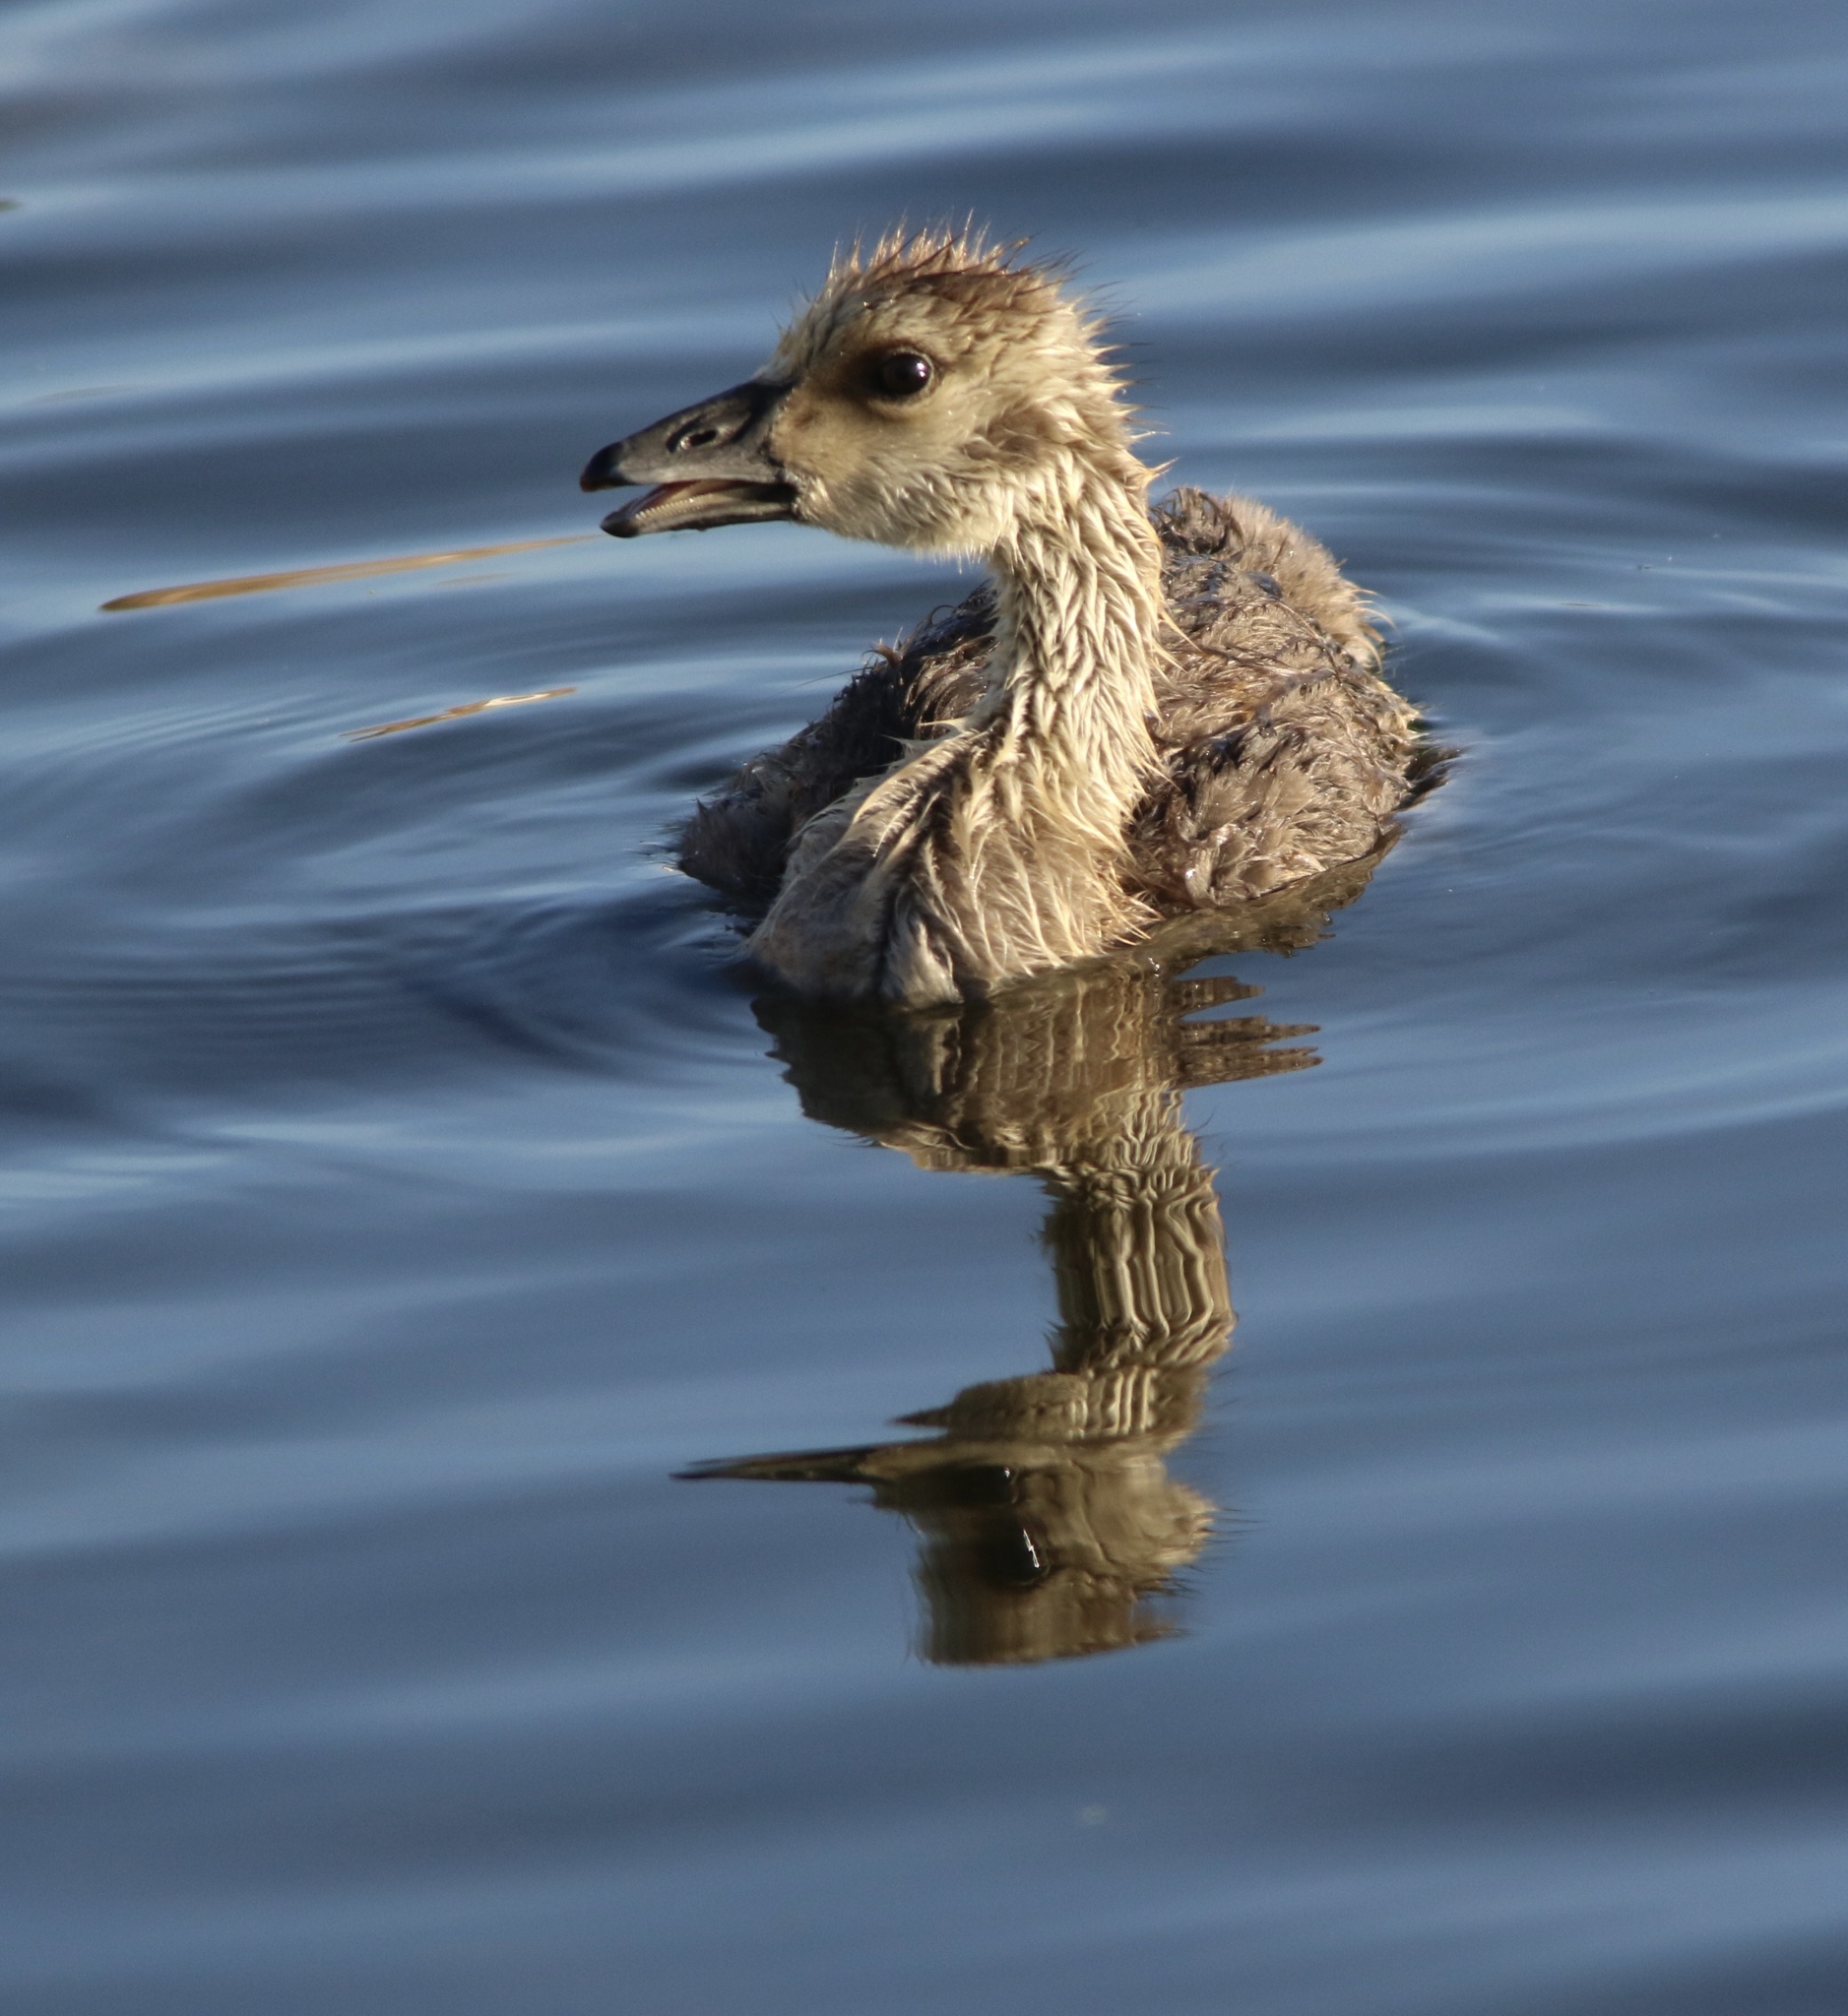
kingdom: Animalia
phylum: Chordata
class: Aves
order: Anseriformes
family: Anatidae
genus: Branta
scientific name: Branta canadensis
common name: Canada goose
